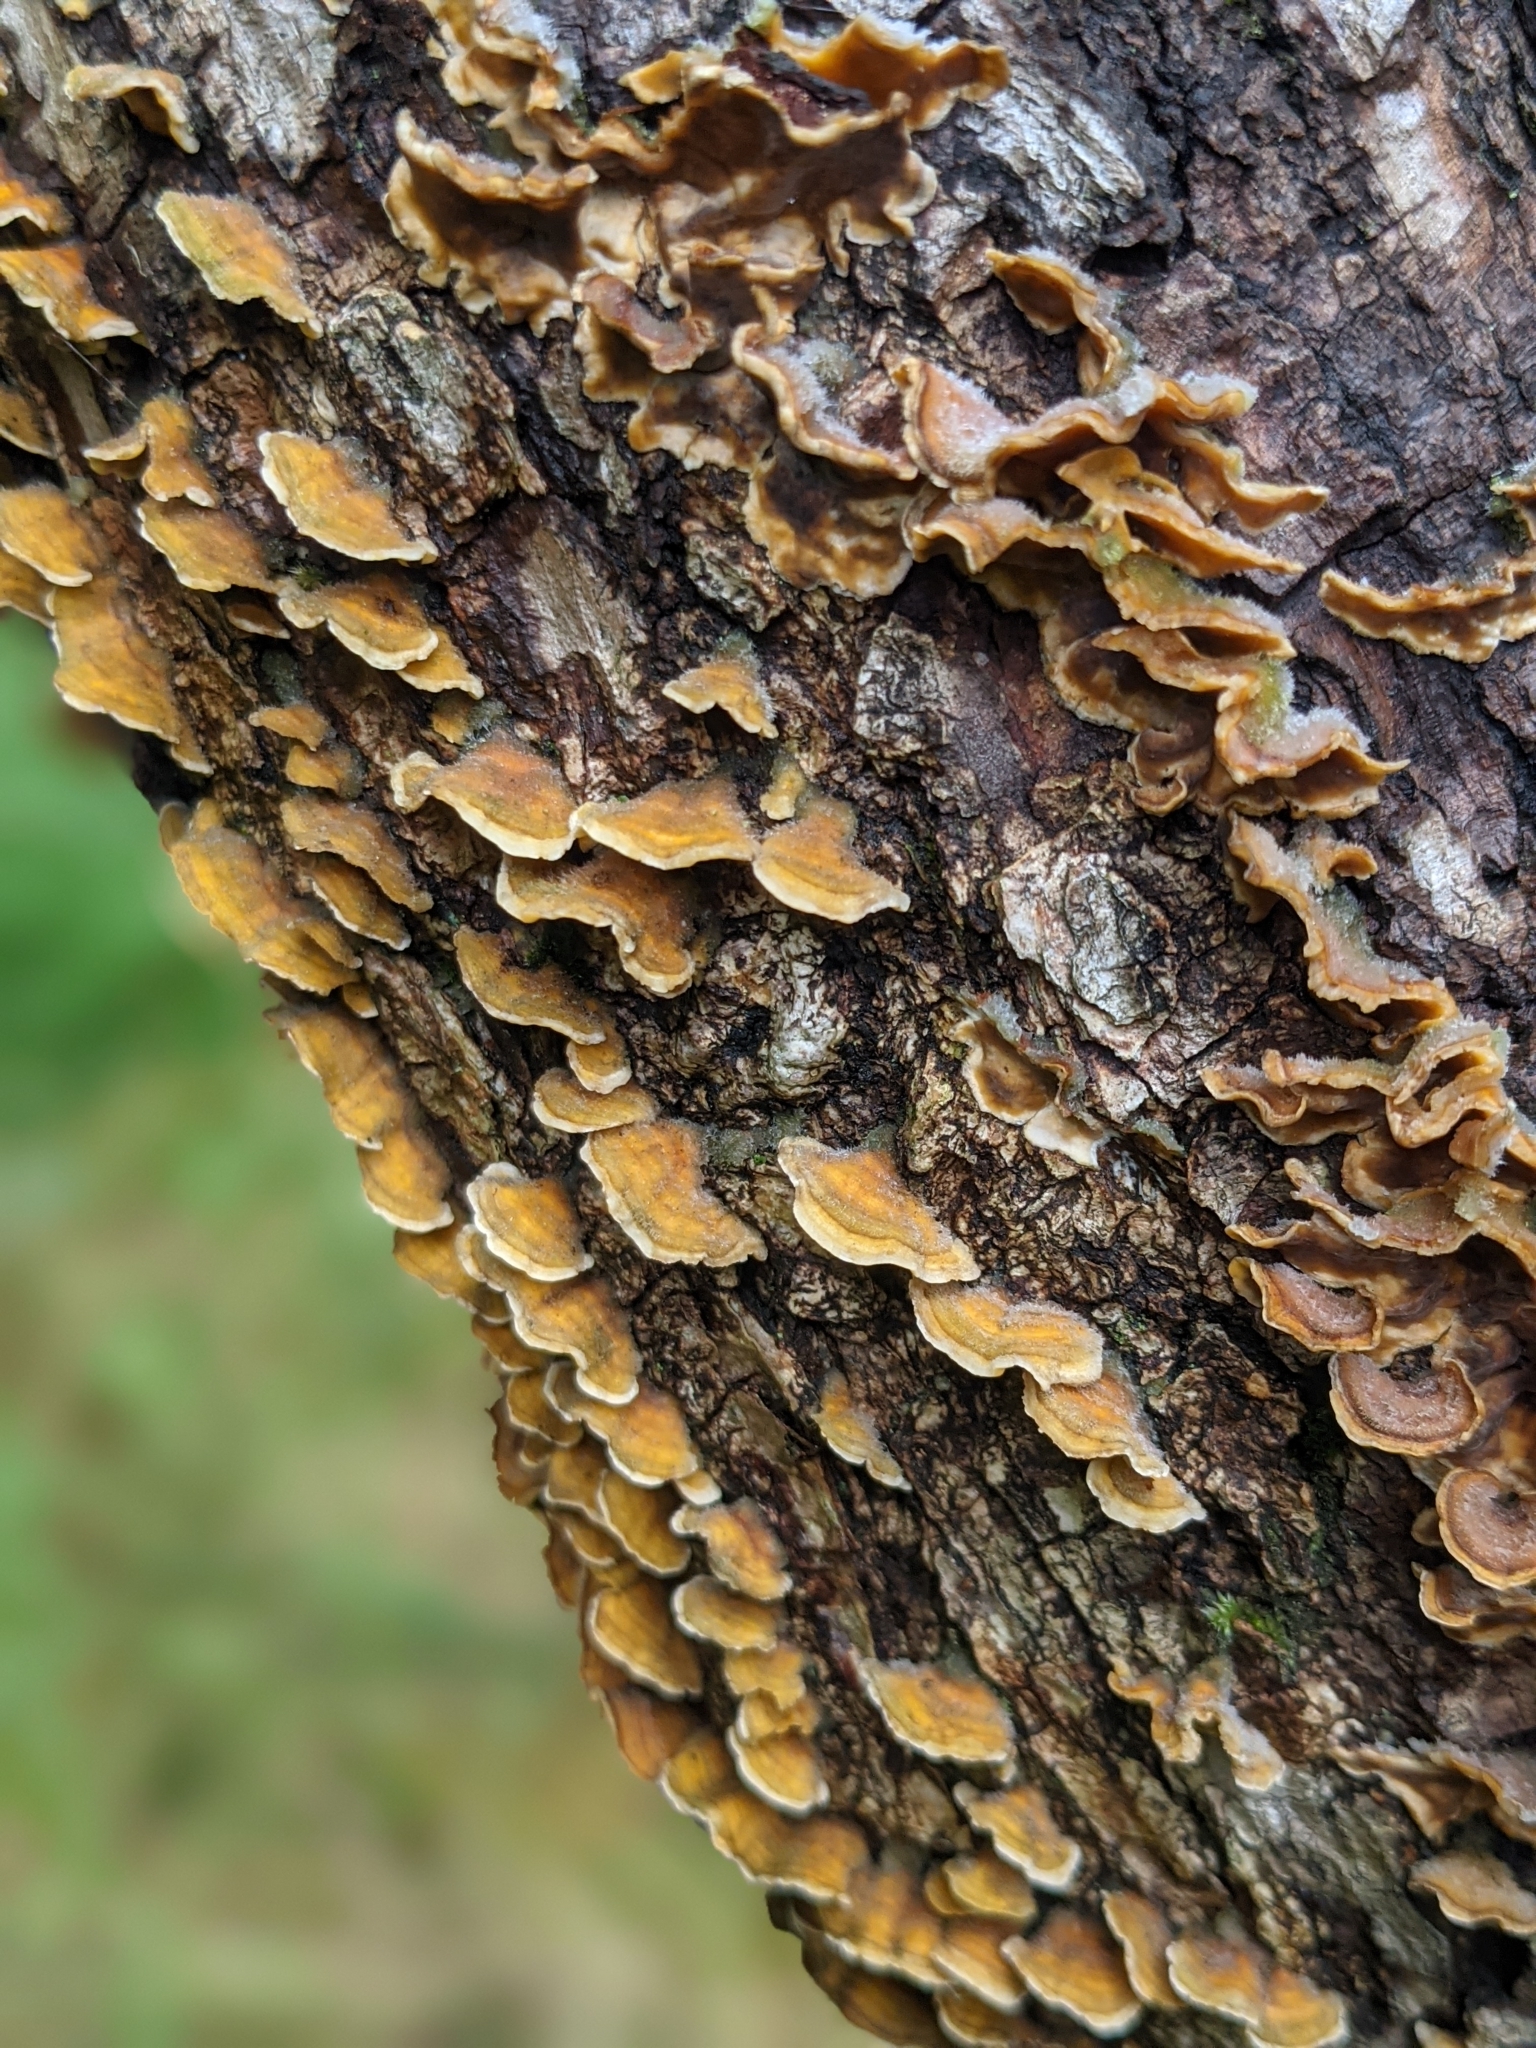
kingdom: Fungi
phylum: Basidiomycota
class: Agaricomycetes
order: Russulales
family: Stereaceae
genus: Stereum
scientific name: Stereum hirsutum
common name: Hairy curtain crust
